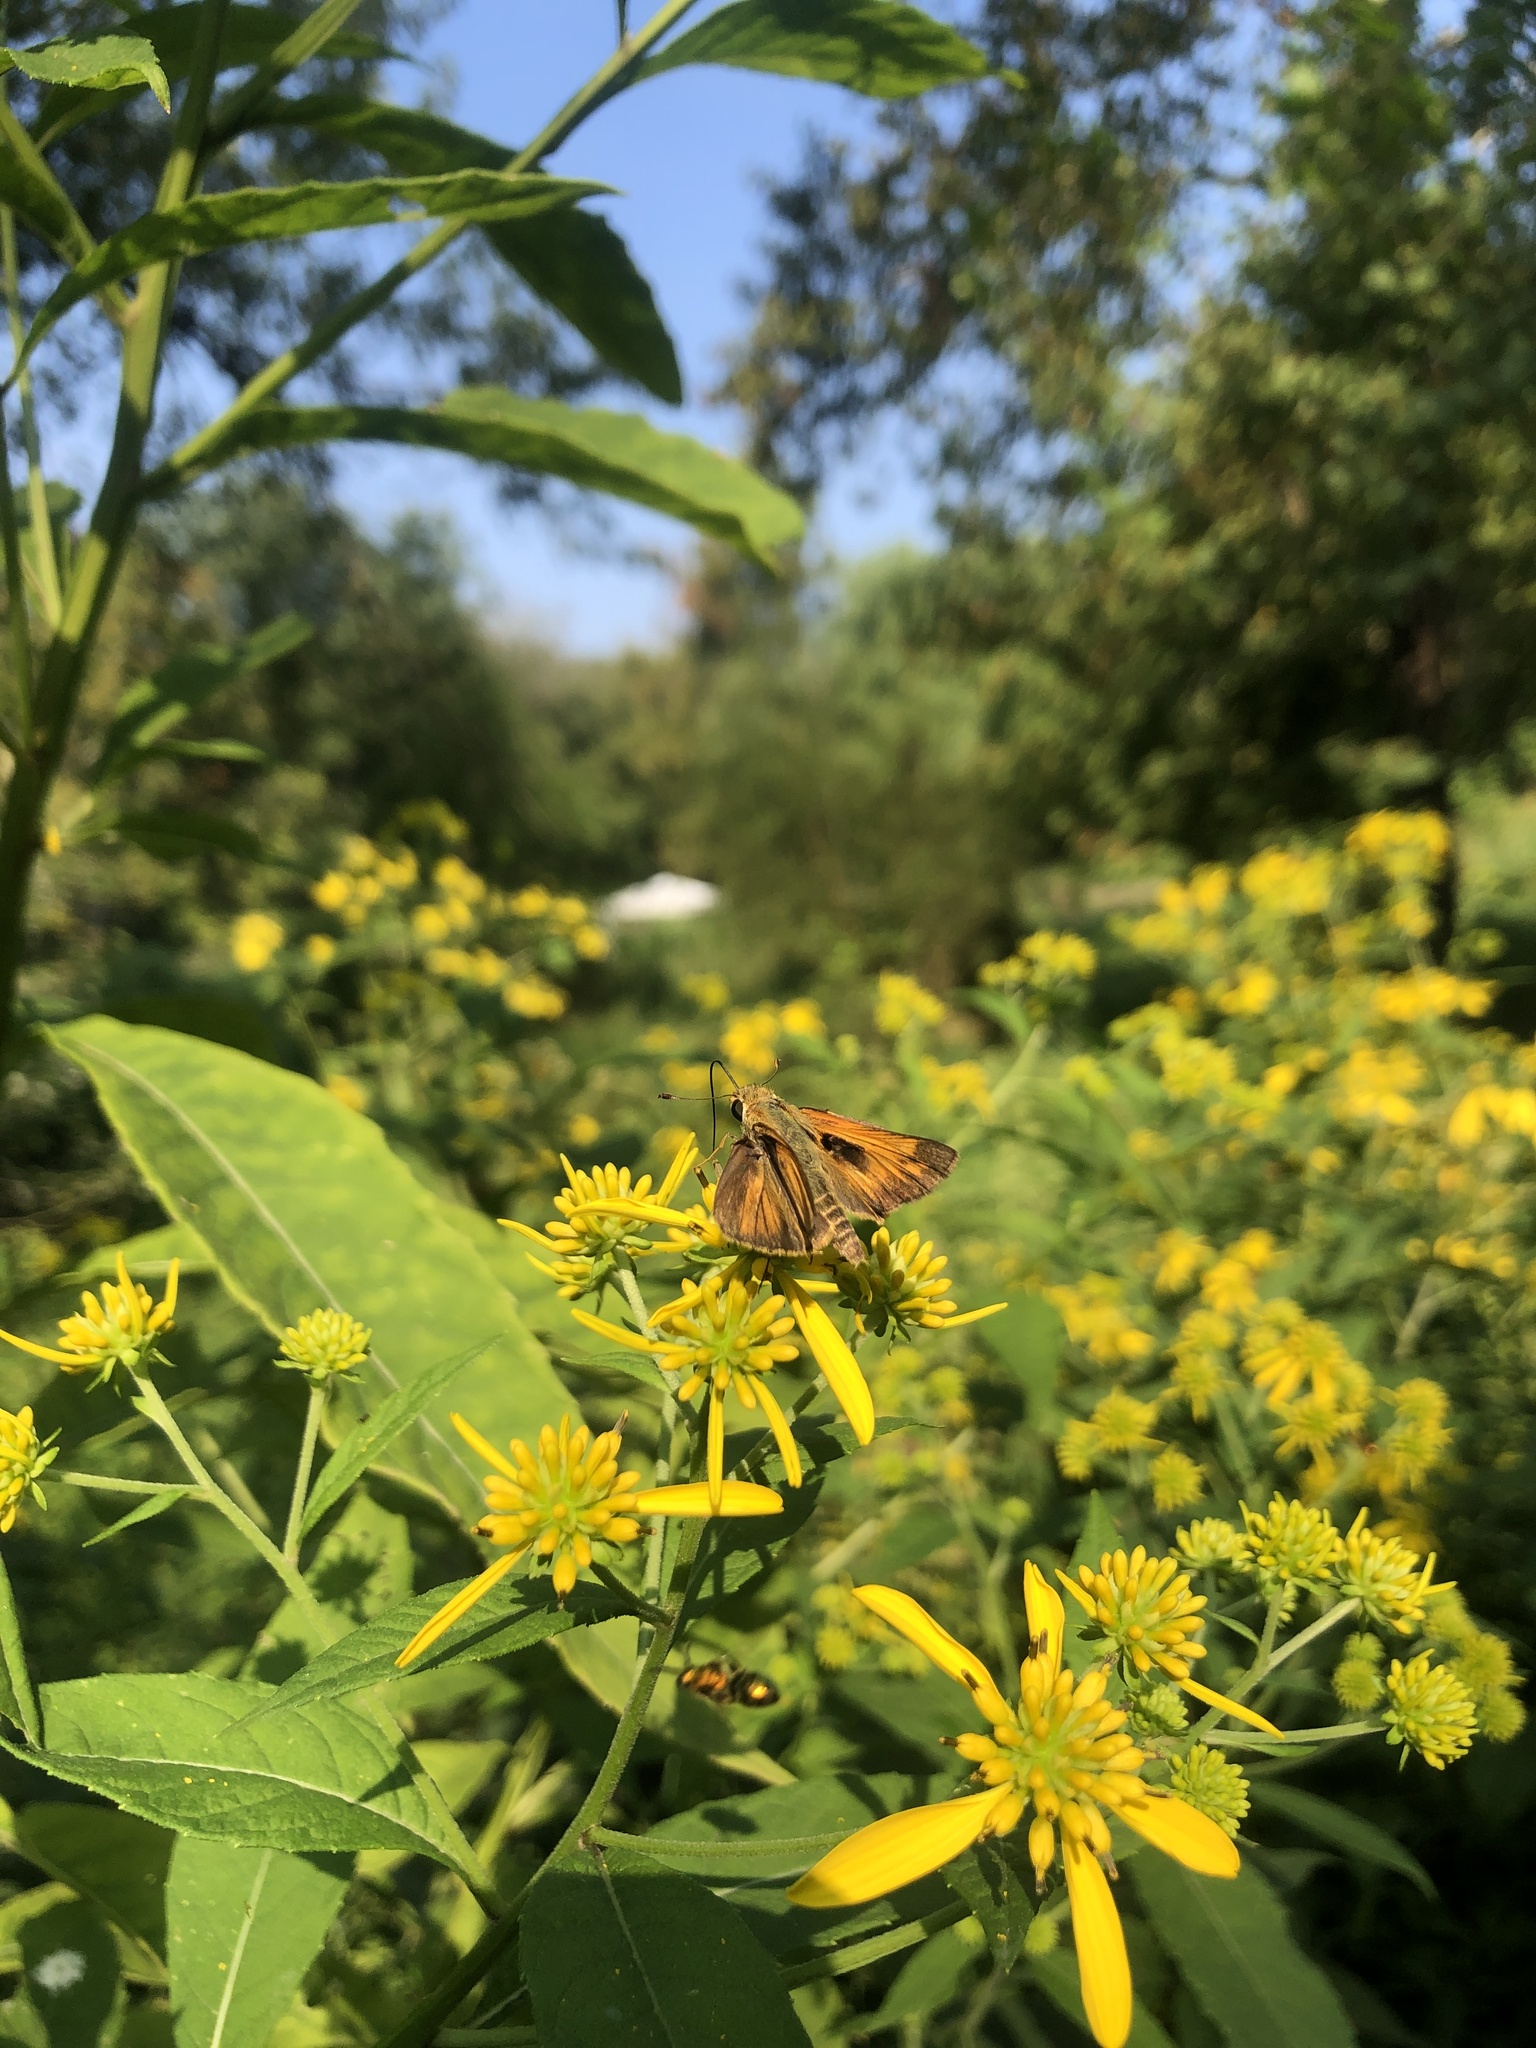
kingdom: Animalia
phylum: Arthropoda
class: Insecta
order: Lepidoptera
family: Hesperiidae
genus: Atalopedes
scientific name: Atalopedes
